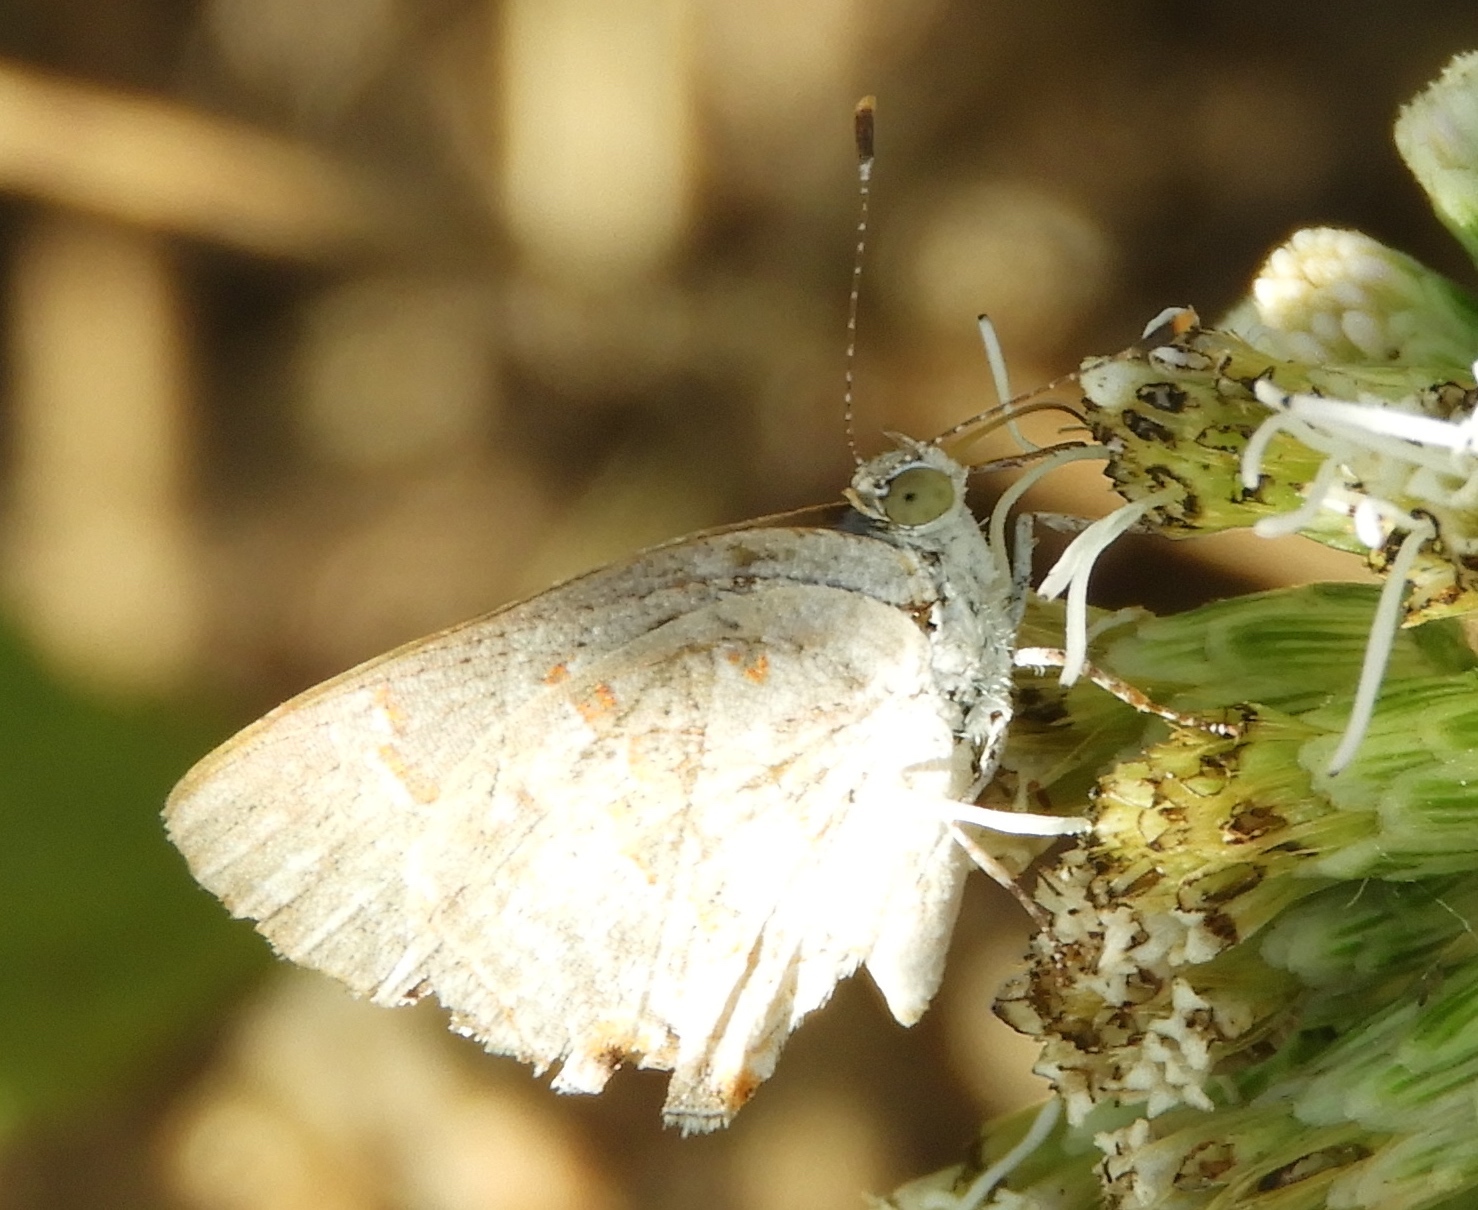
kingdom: Animalia
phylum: Arthropoda
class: Insecta
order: Lepidoptera
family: Lycaenidae
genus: Ministrymon
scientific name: Ministrymon
